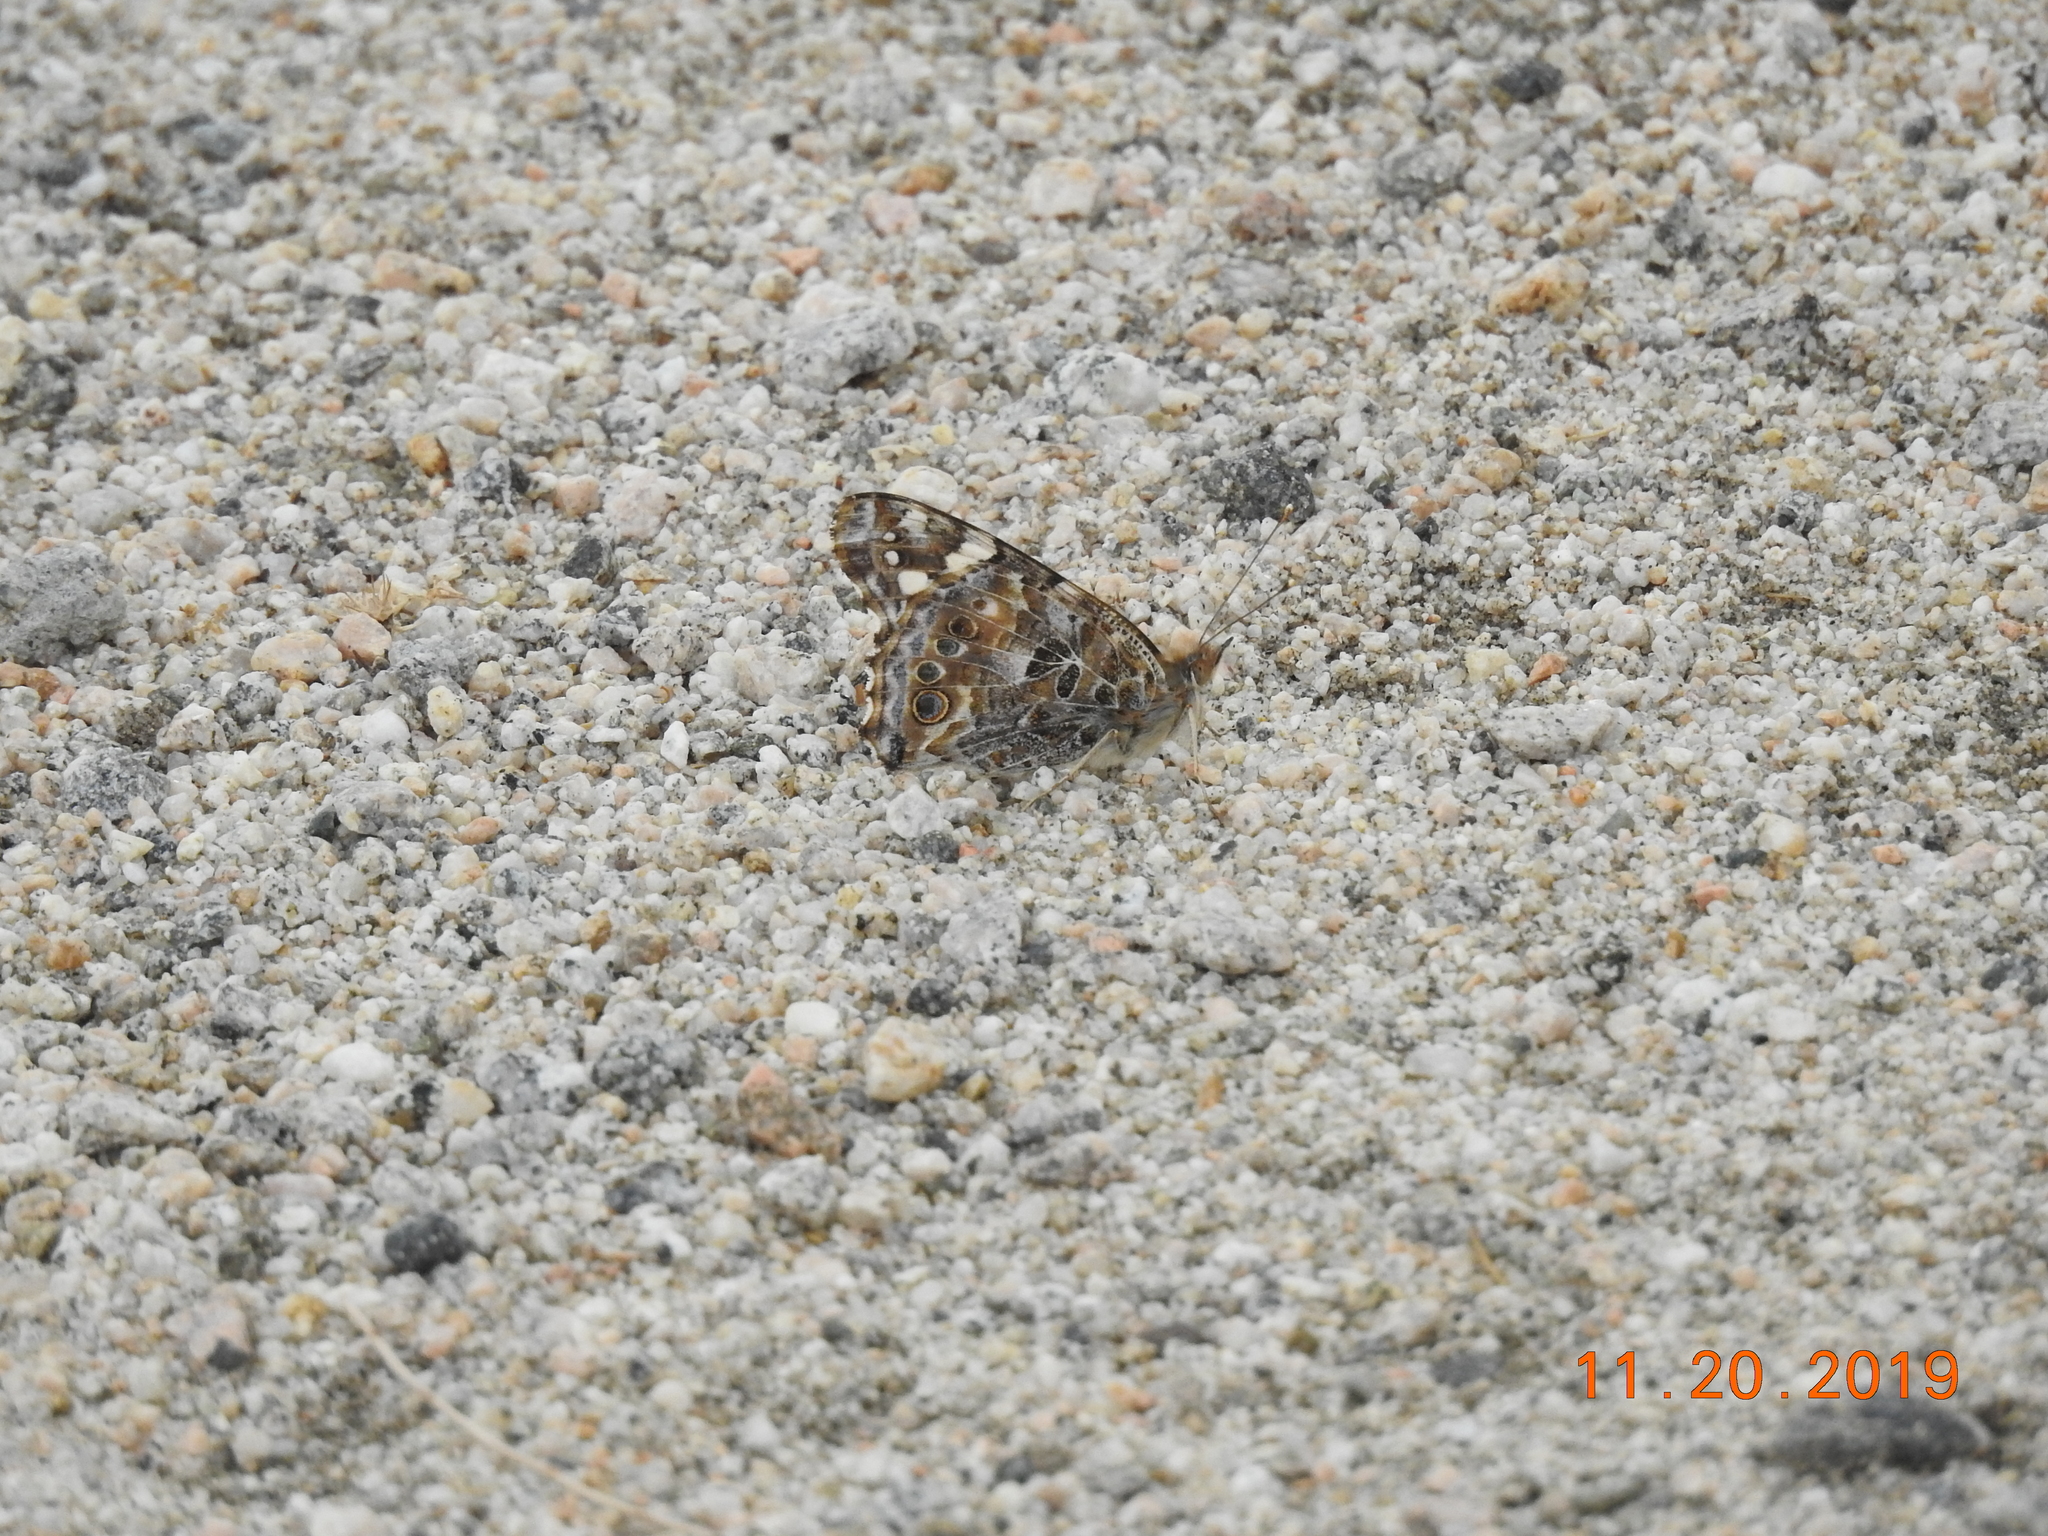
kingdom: Animalia
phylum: Arthropoda
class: Insecta
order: Lepidoptera
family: Nymphalidae
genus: Vanessa
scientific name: Vanessa cardui
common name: Painted lady
